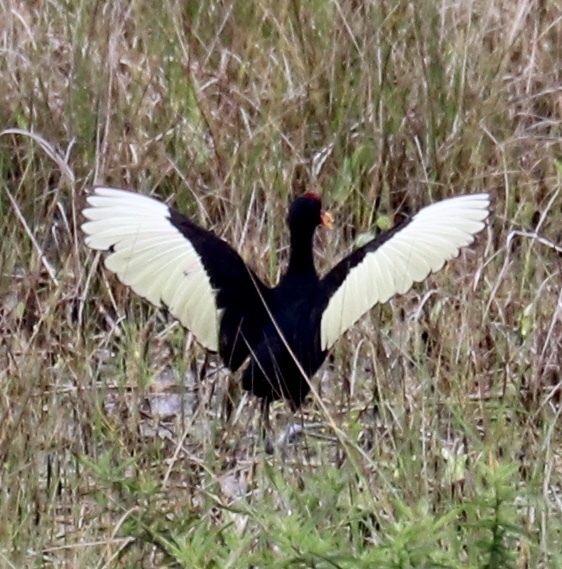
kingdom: Animalia
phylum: Chordata
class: Aves
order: Charadriiformes
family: Jacanidae
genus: Jacana
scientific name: Jacana jacana
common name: Wattled jacana
